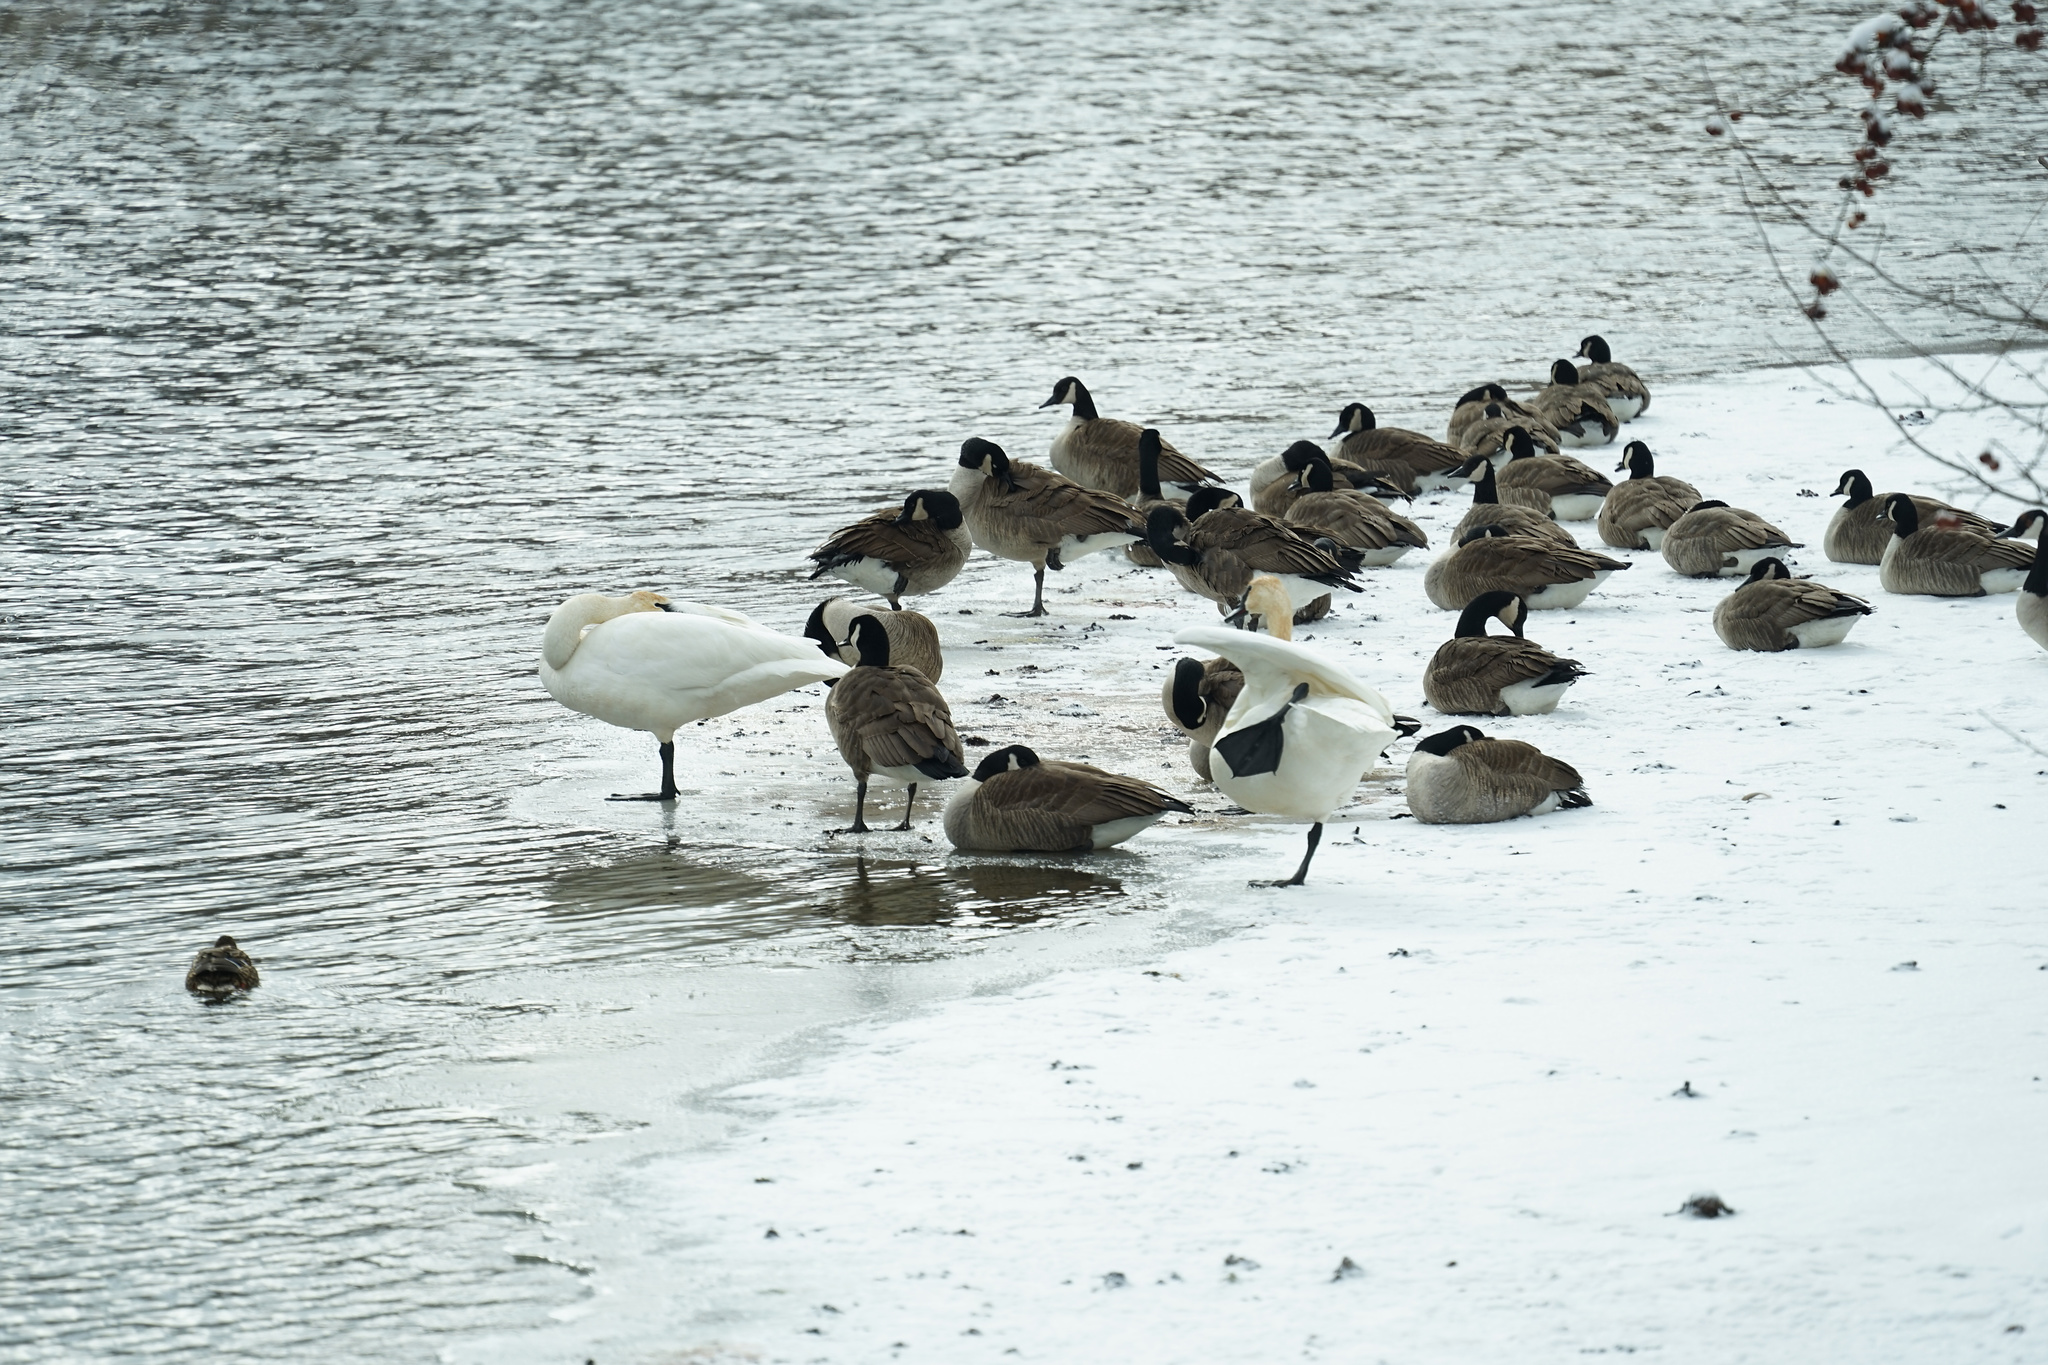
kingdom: Animalia
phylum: Chordata
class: Aves
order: Anseriformes
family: Anatidae
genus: Cygnus
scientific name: Cygnus buccinator
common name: Trumpeter swan
